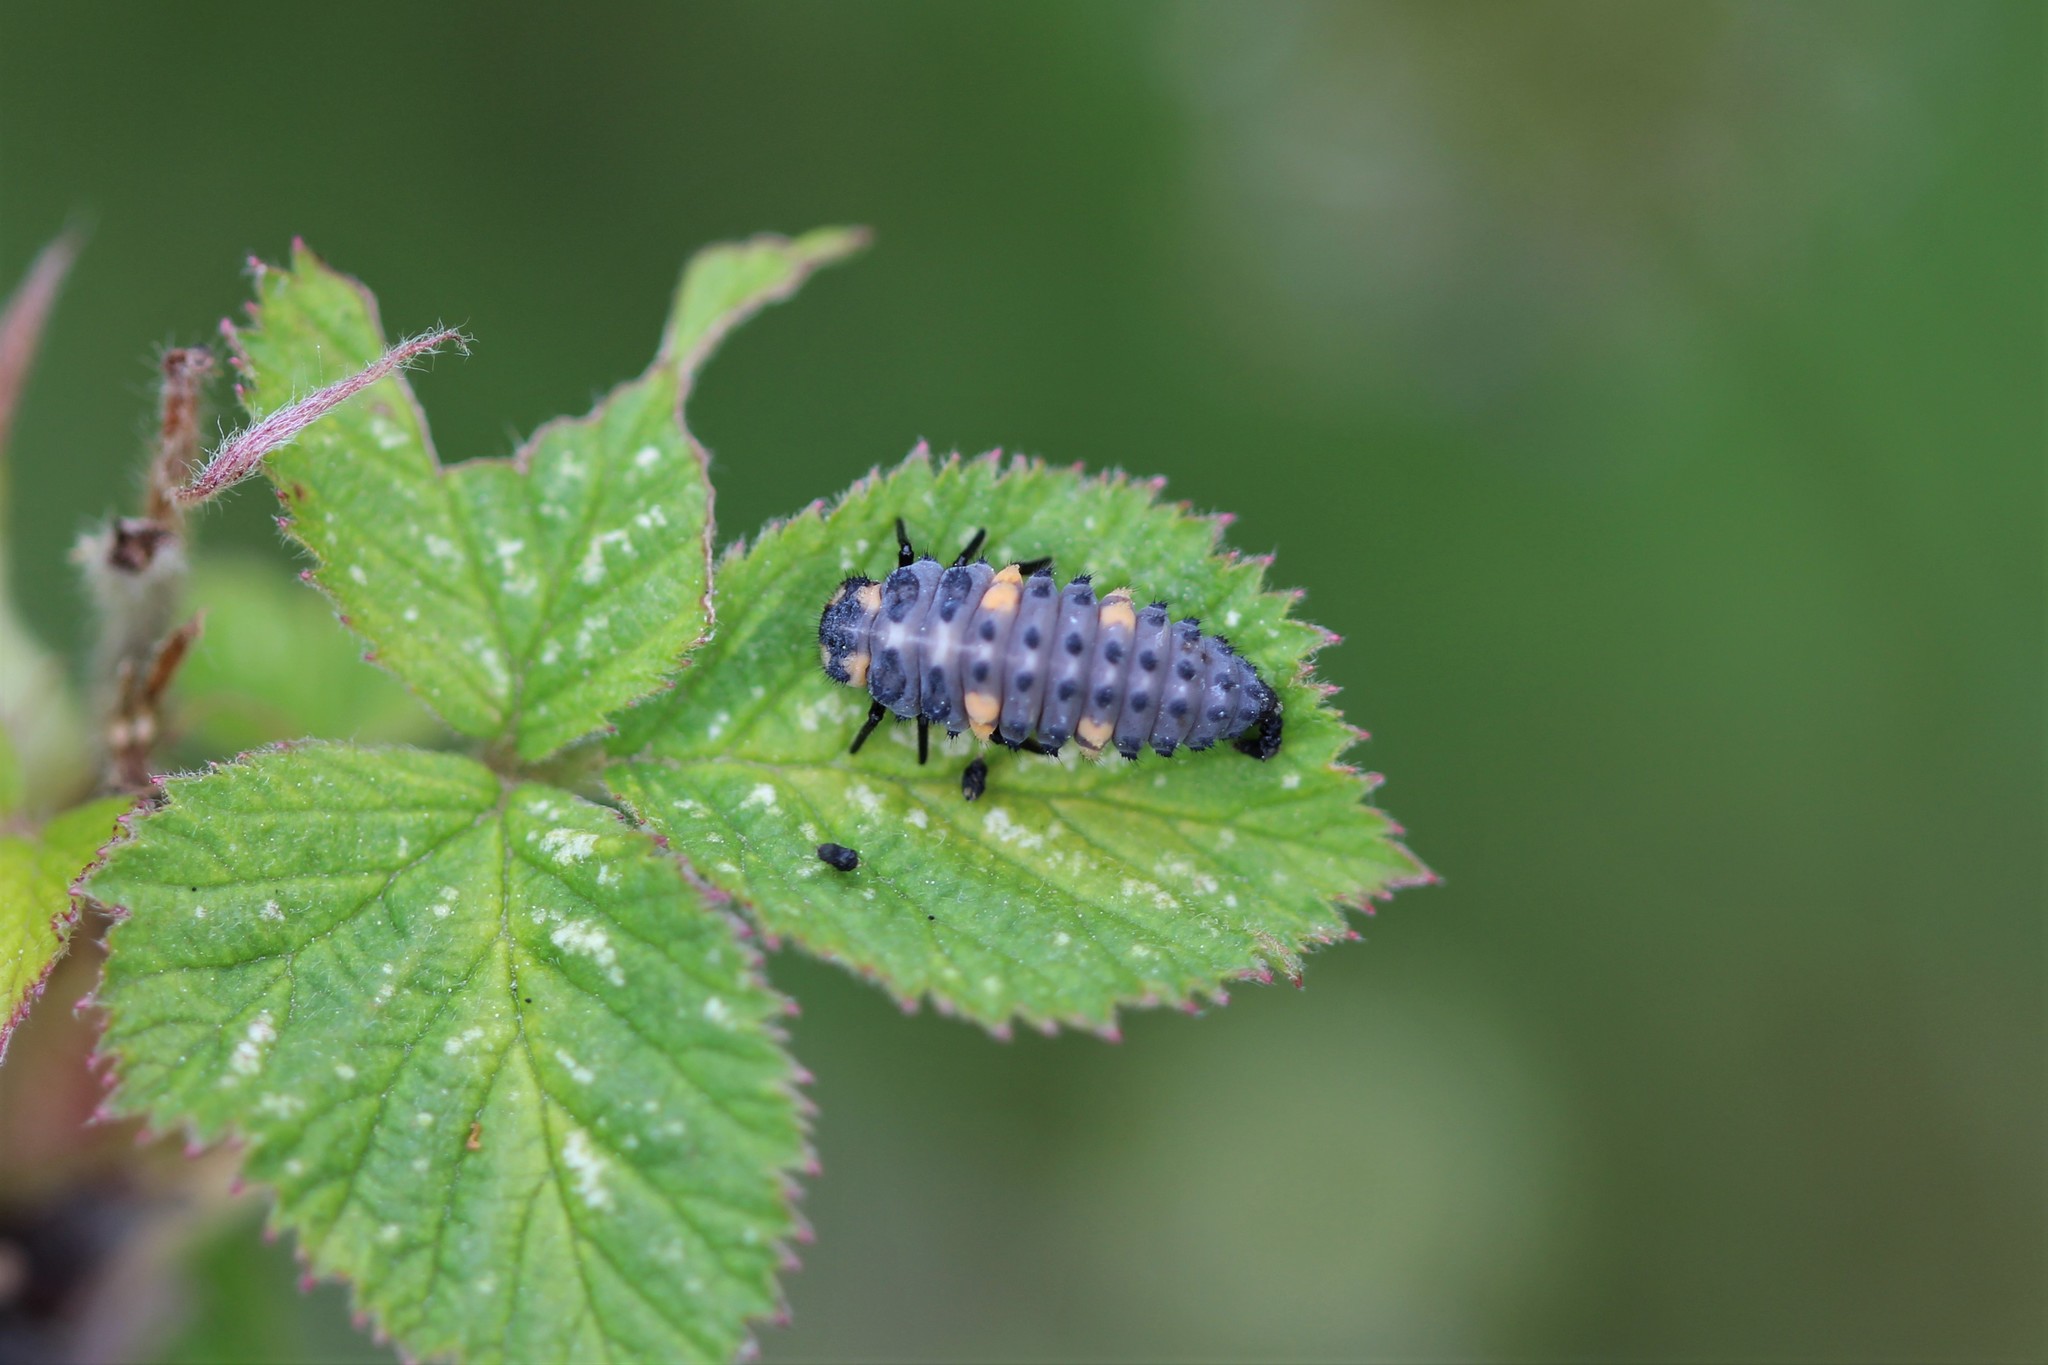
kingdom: Animalia
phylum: Arthropoda
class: Insecta
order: Coleoptera
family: Coccinellidae
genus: Coccinella
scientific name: Coccinella septempunctata
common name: Sevenspotted lady beetle
